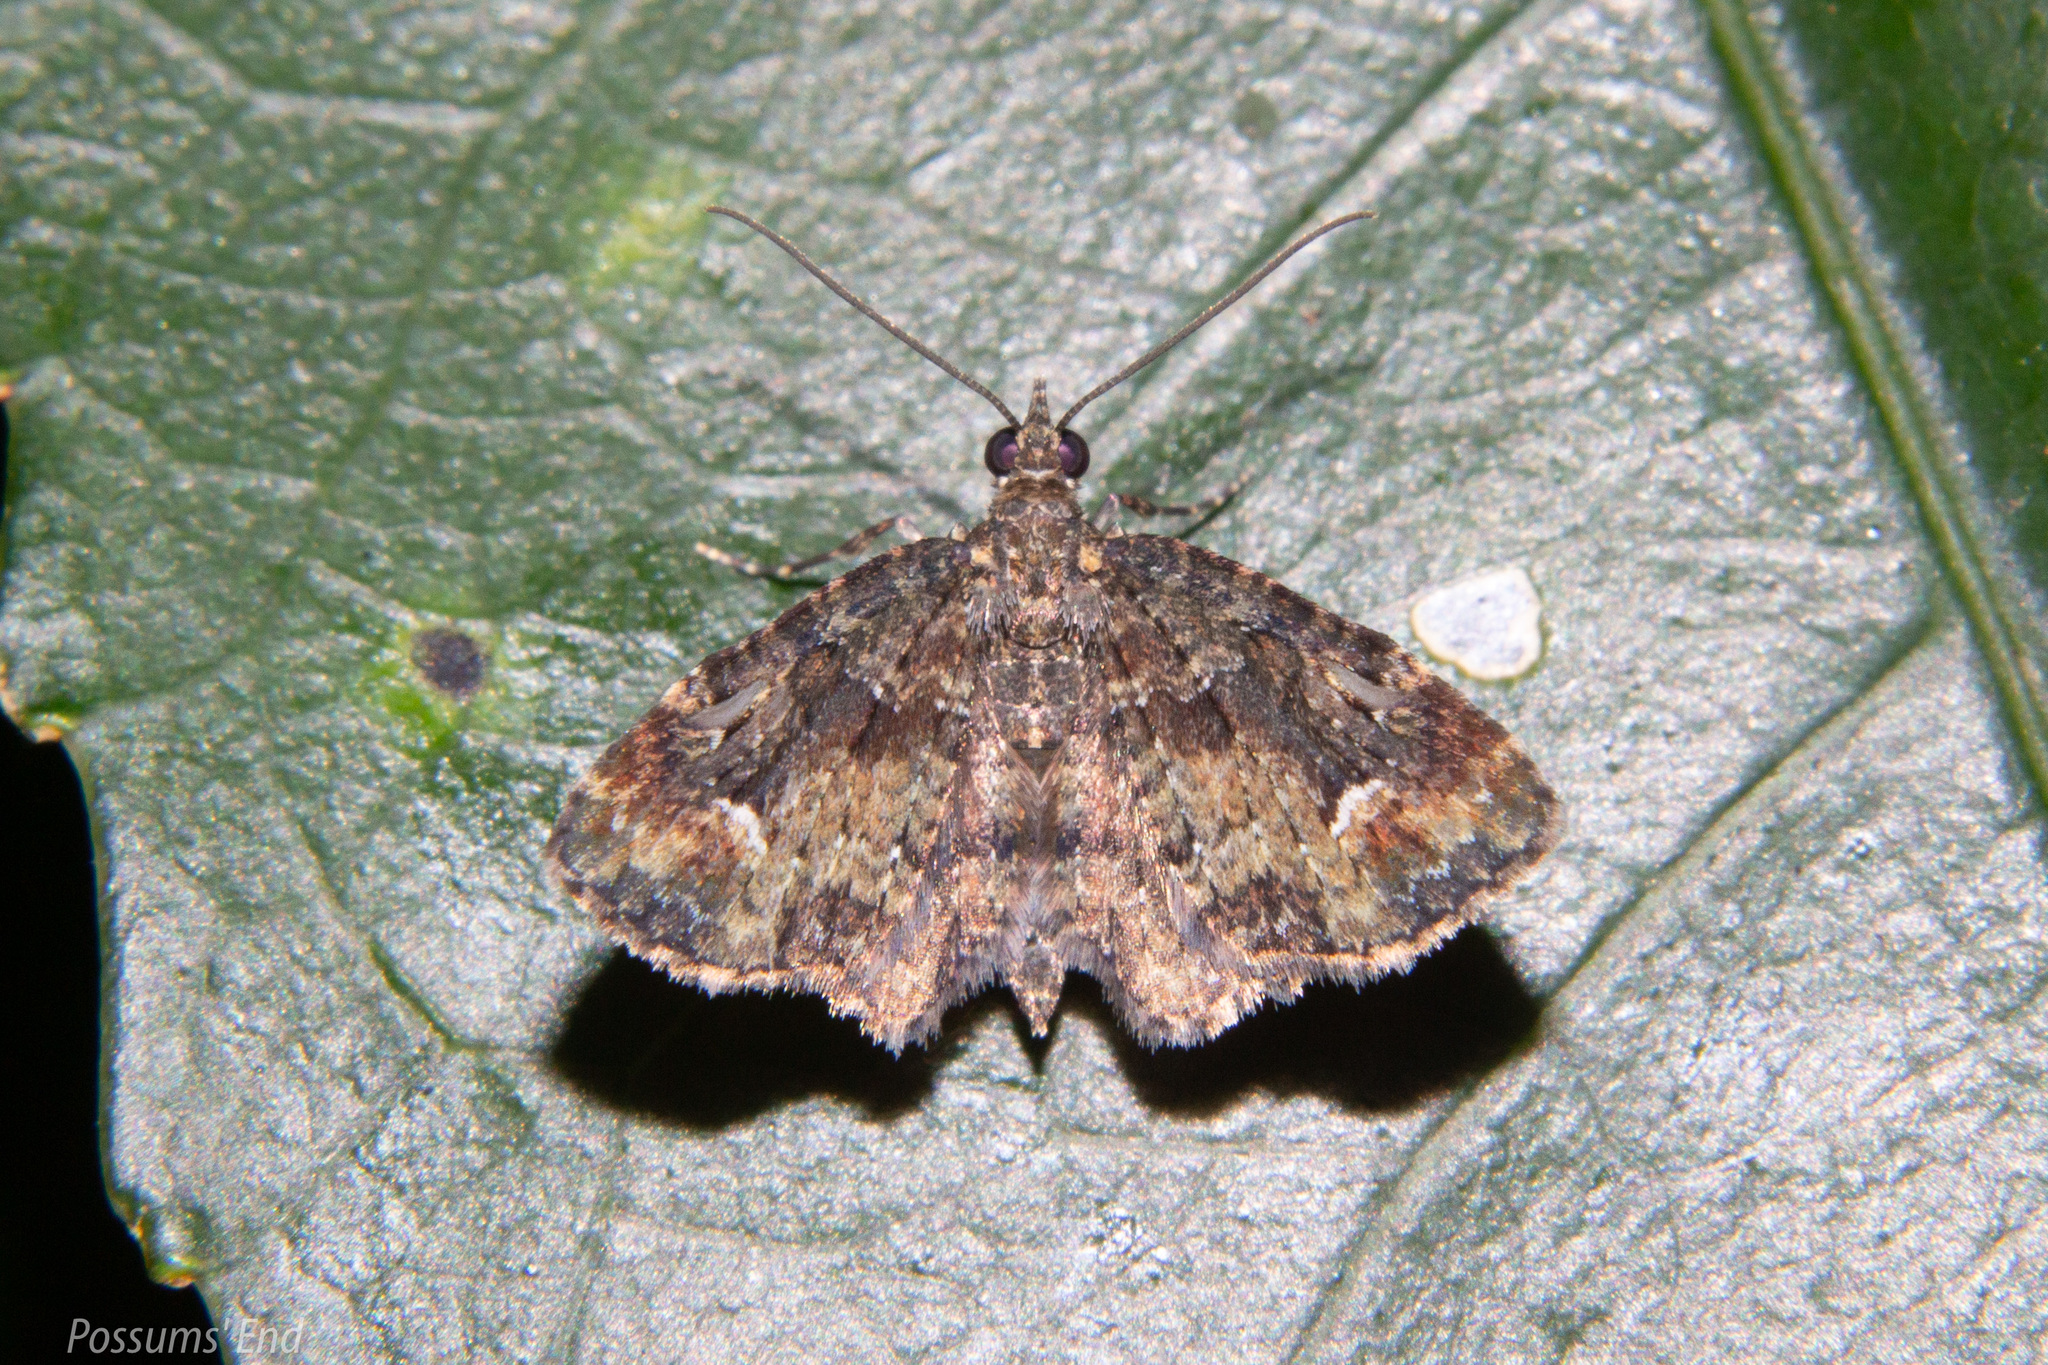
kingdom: Animalia
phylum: Arthropoda
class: Insecta
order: Lepidoptera
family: Geometridae
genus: Pasiphilodes
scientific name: Pasiphilodes testulata
